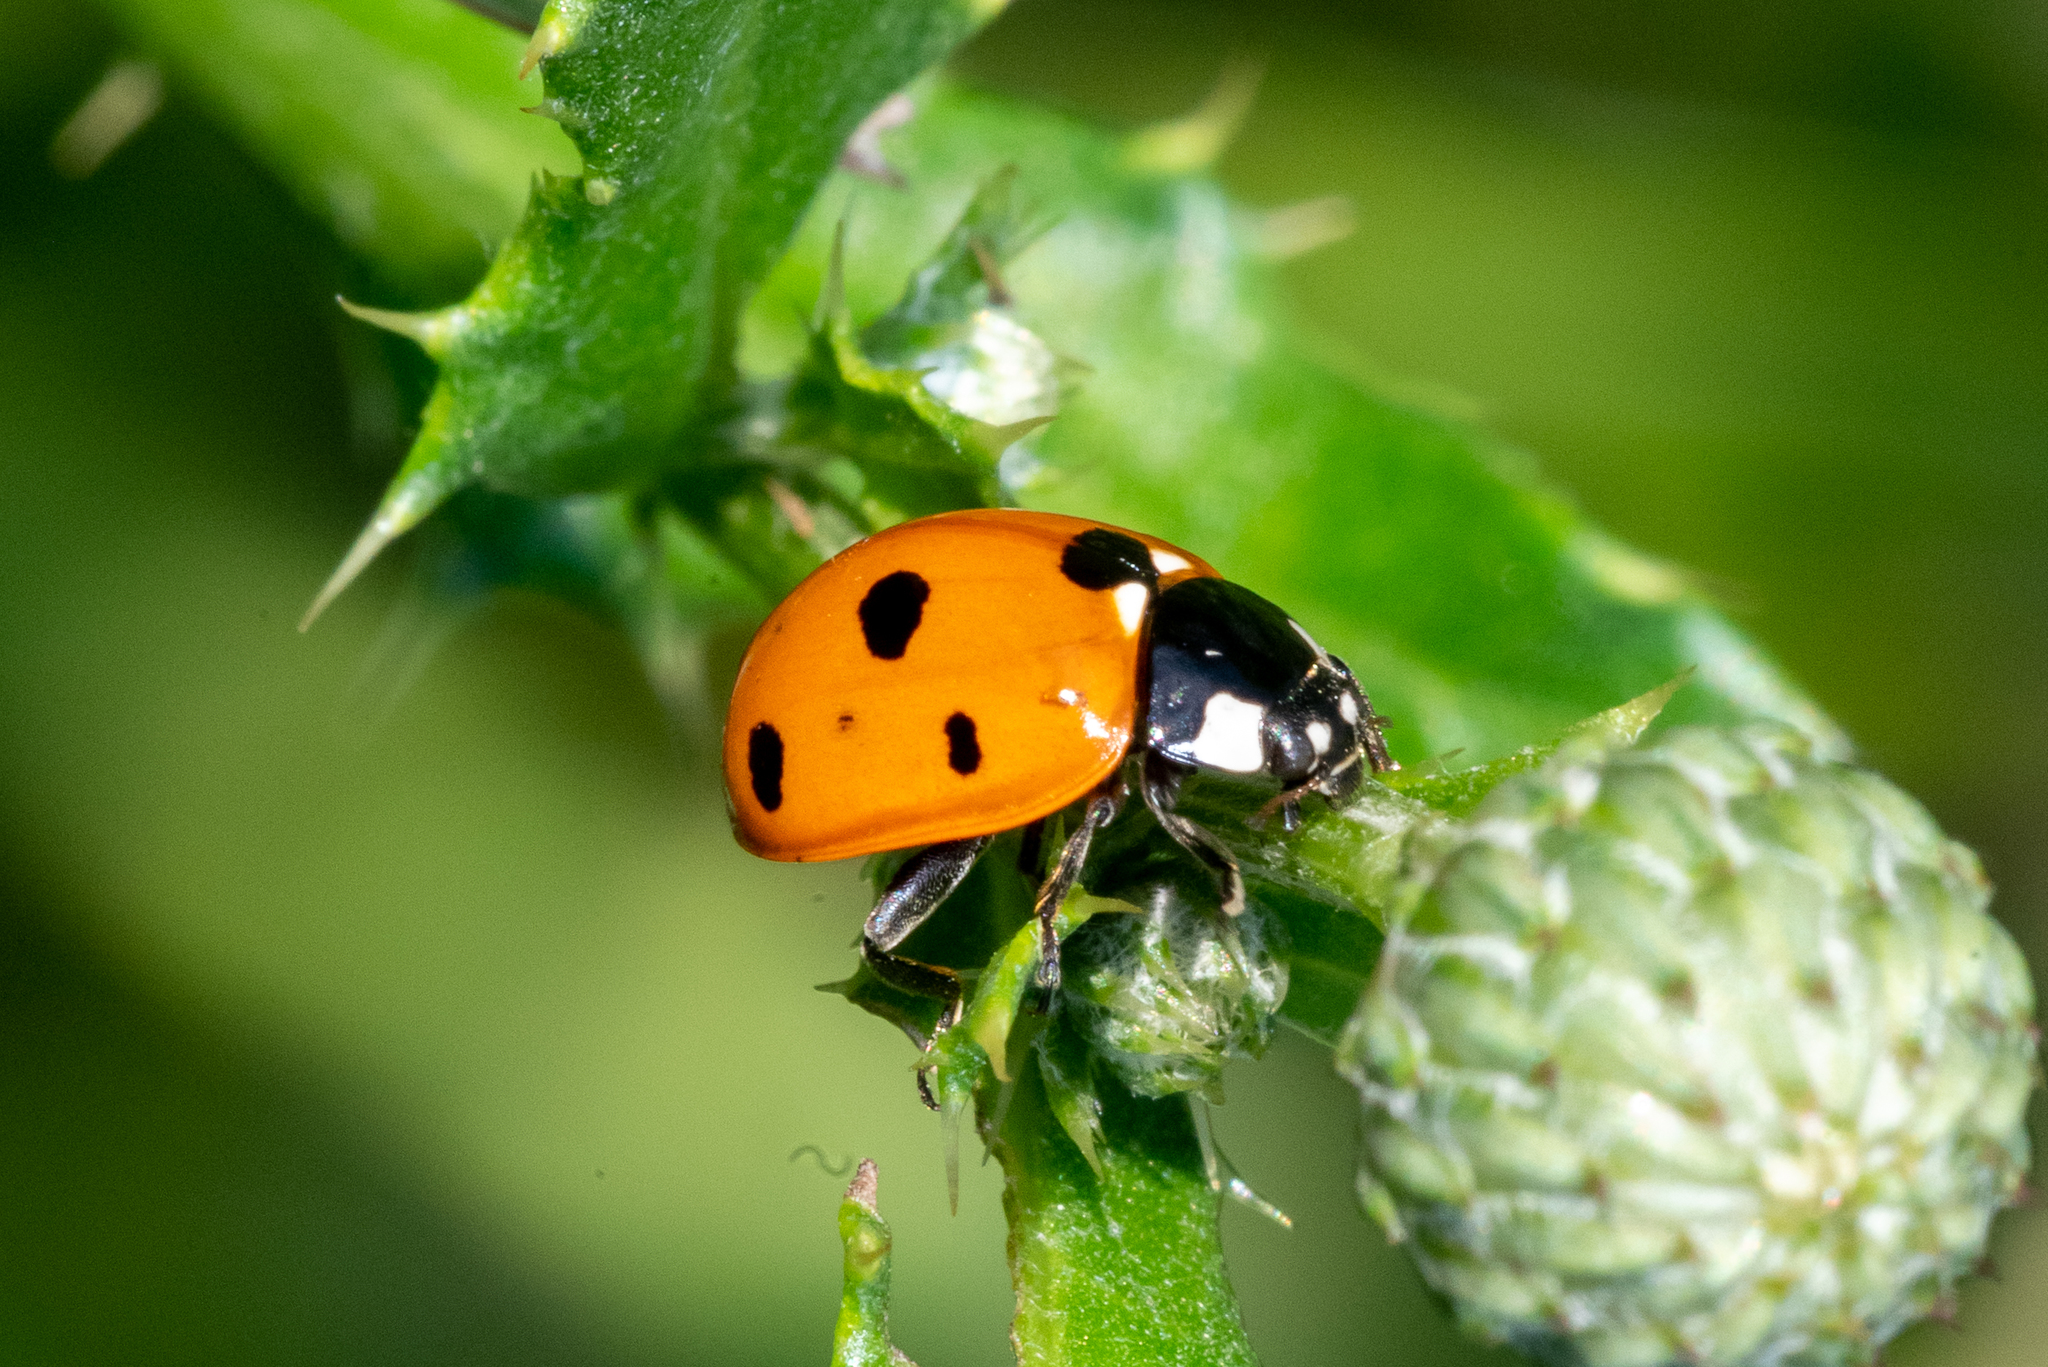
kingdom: Animalia
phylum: Arthropoda
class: Insecta
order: Coleoptera
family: Coccinellidae
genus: Coccinella
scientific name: Coccinella septempunctata
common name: Sevenspotted lady beetle
